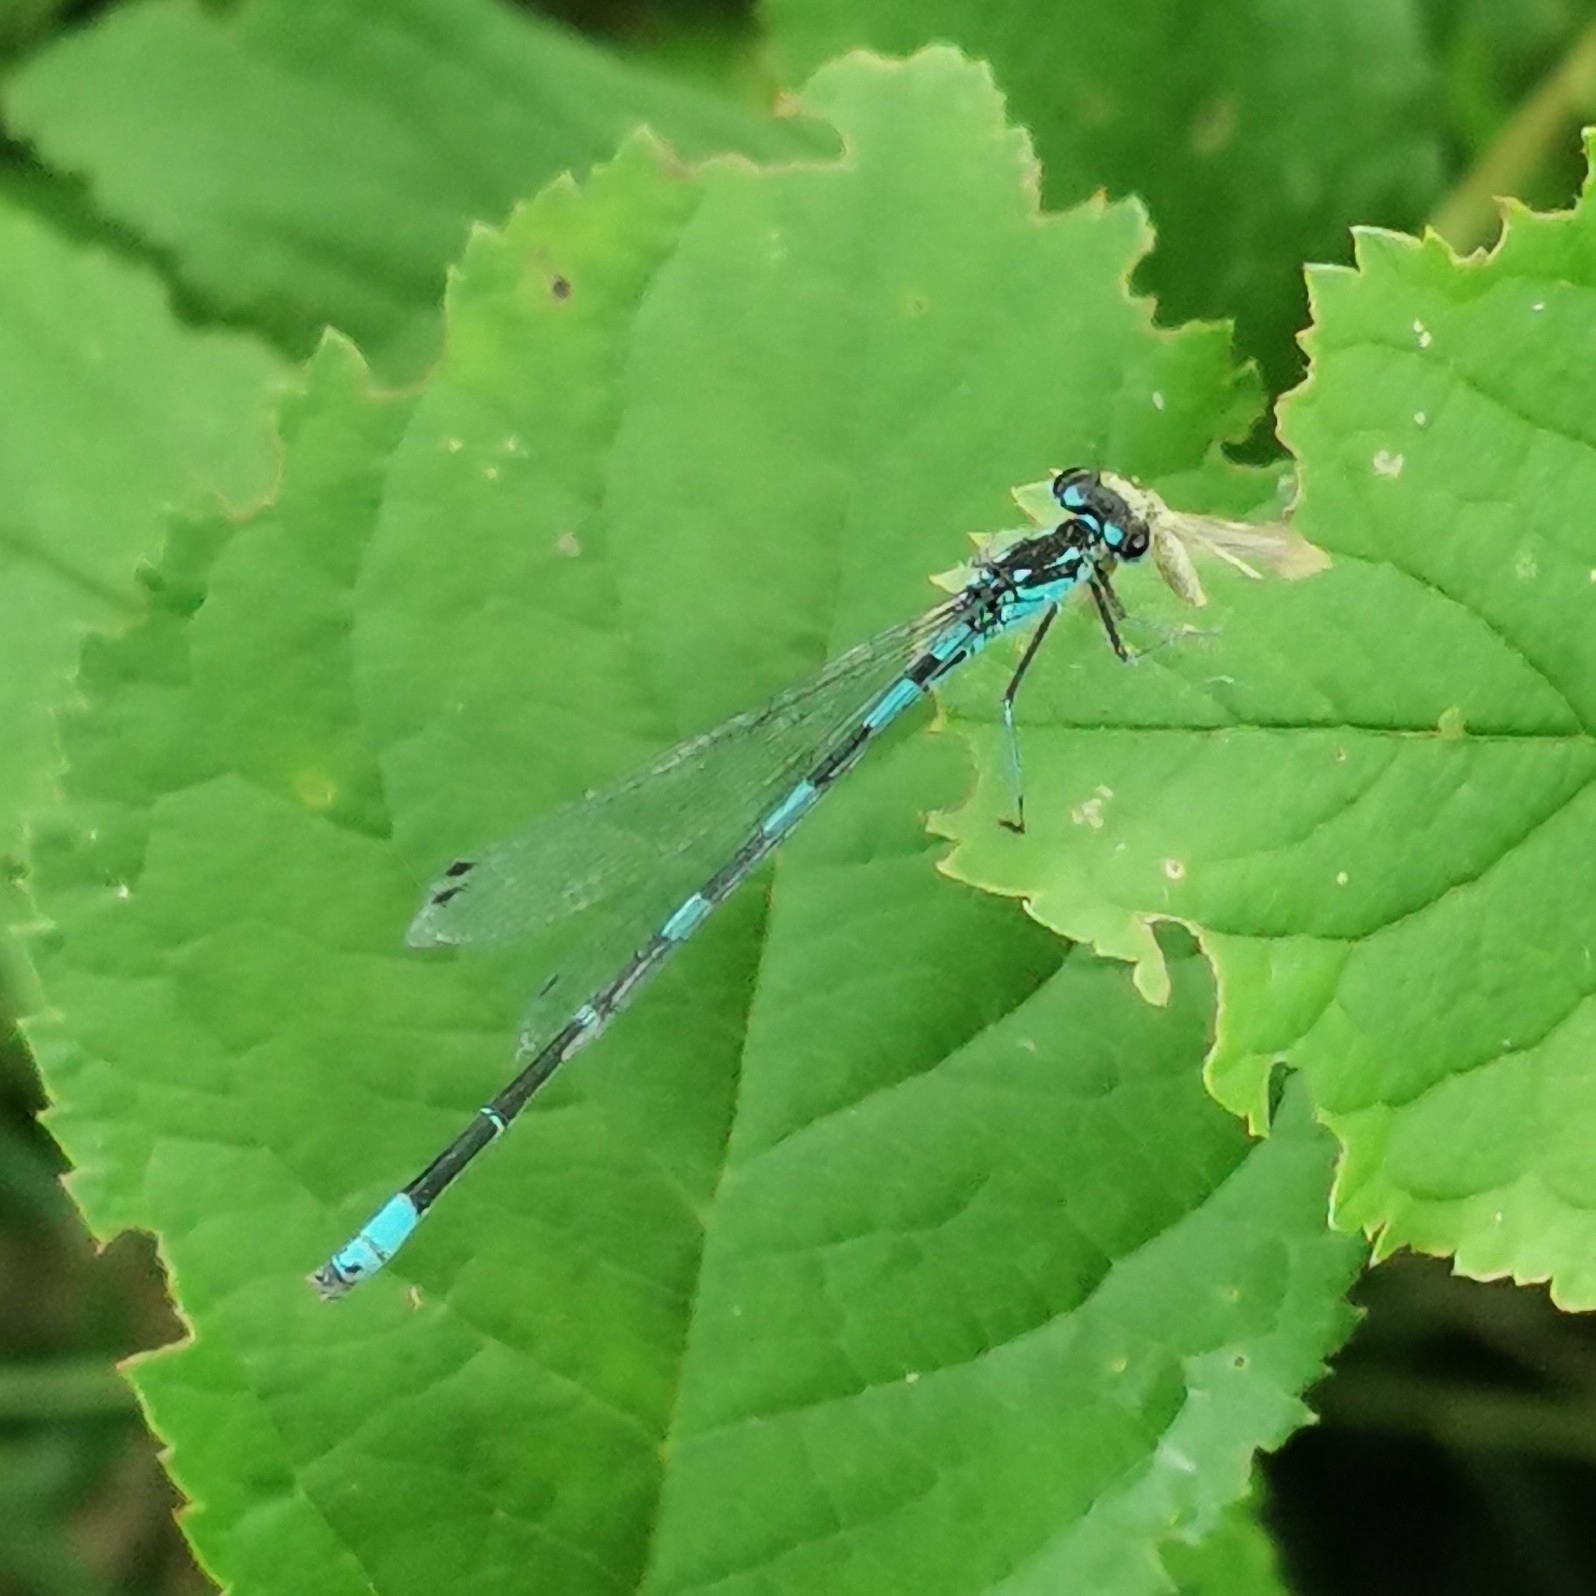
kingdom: Animalia
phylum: Arthropoda
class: Insecta
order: Odonata
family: Coenagrionidae
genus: Coenagrion
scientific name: Coenagrion pulchellum
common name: Variable bluet
